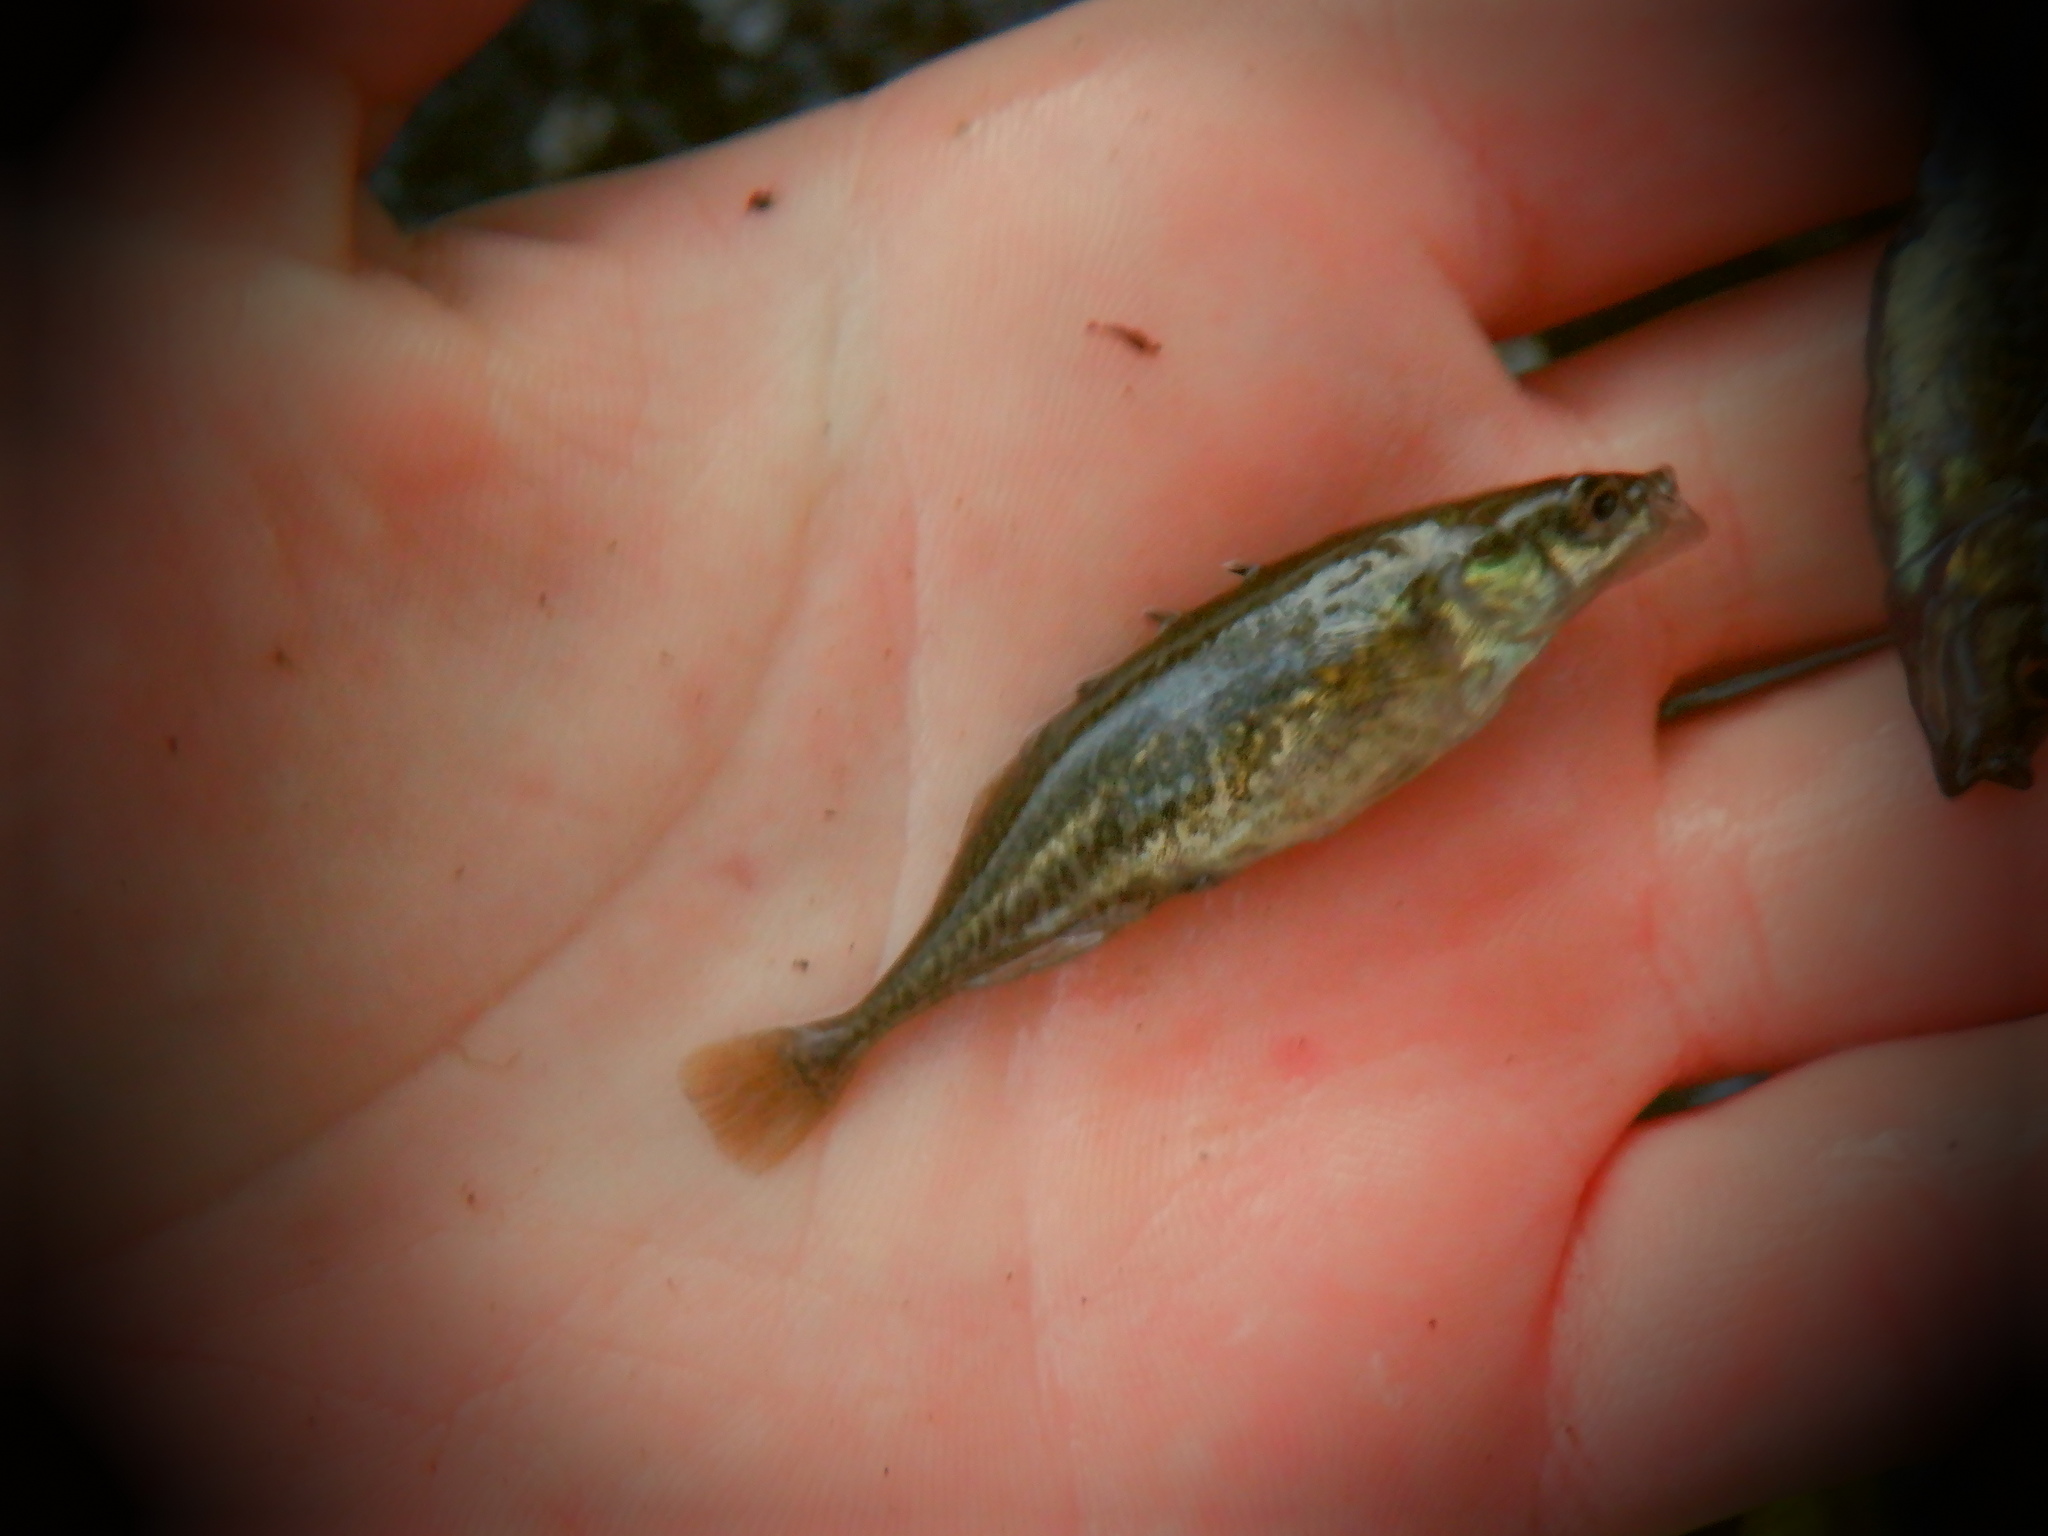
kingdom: Animalia
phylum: Chordata
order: Gasterosteiformes
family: Gasterosteidae
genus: Culaea
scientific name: Culaea inconstans
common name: Brook stickleback
